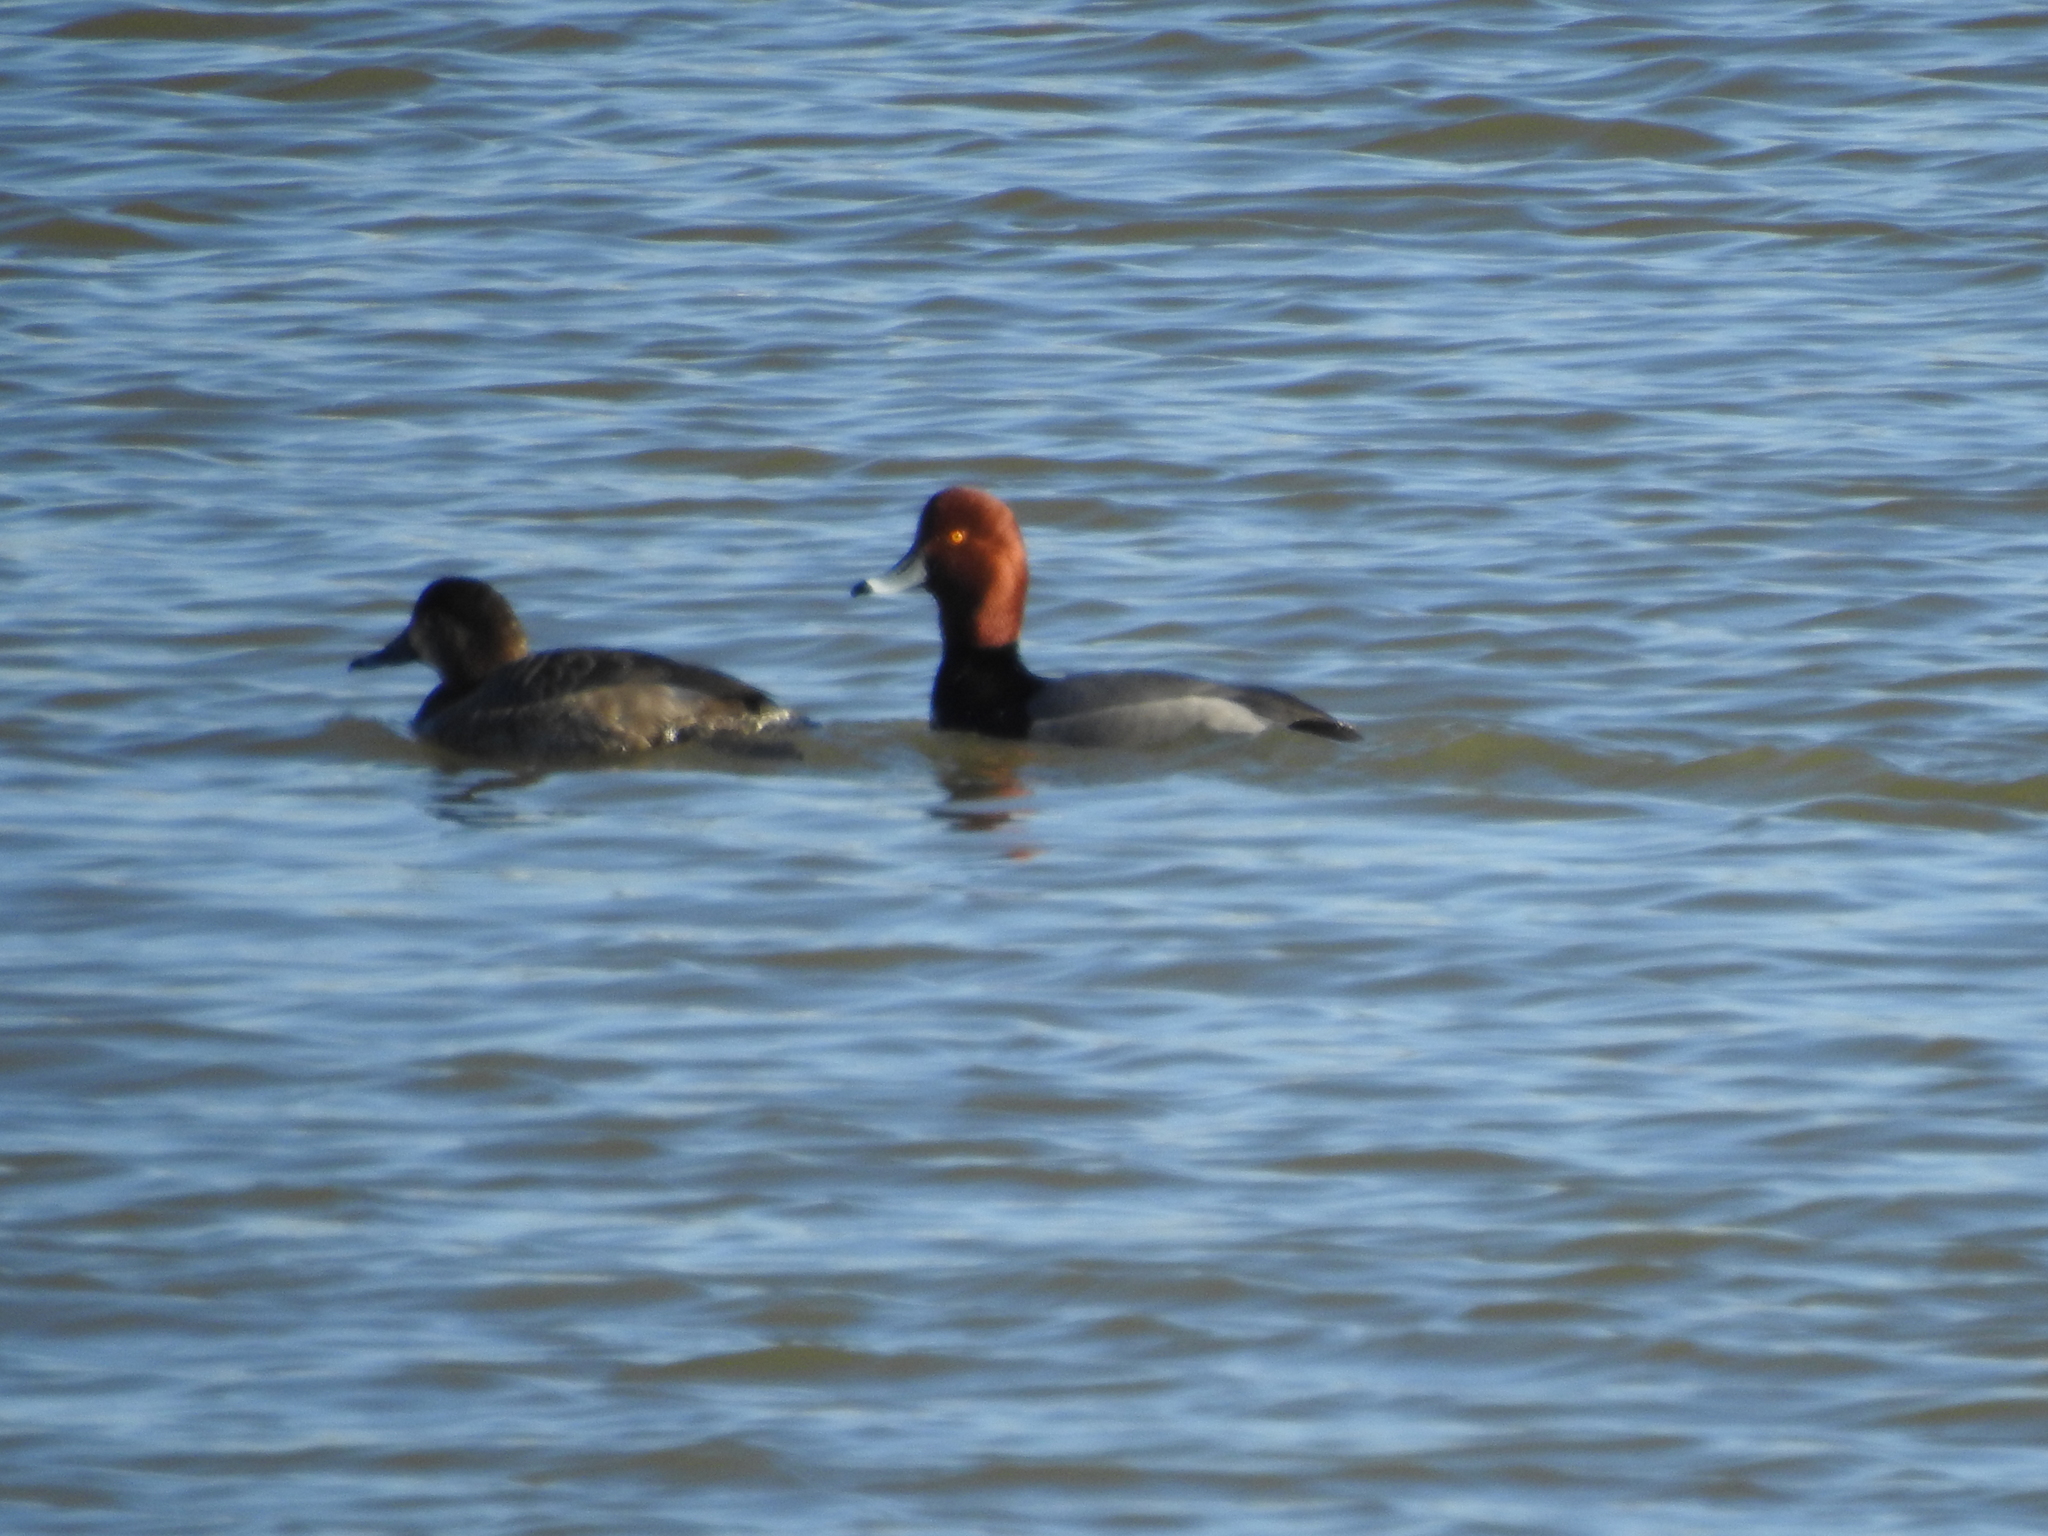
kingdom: Animalia
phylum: Chordata
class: Aves
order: Anseriformes
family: Anatidae
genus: Aythya
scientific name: Aythya americana
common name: Redhead
